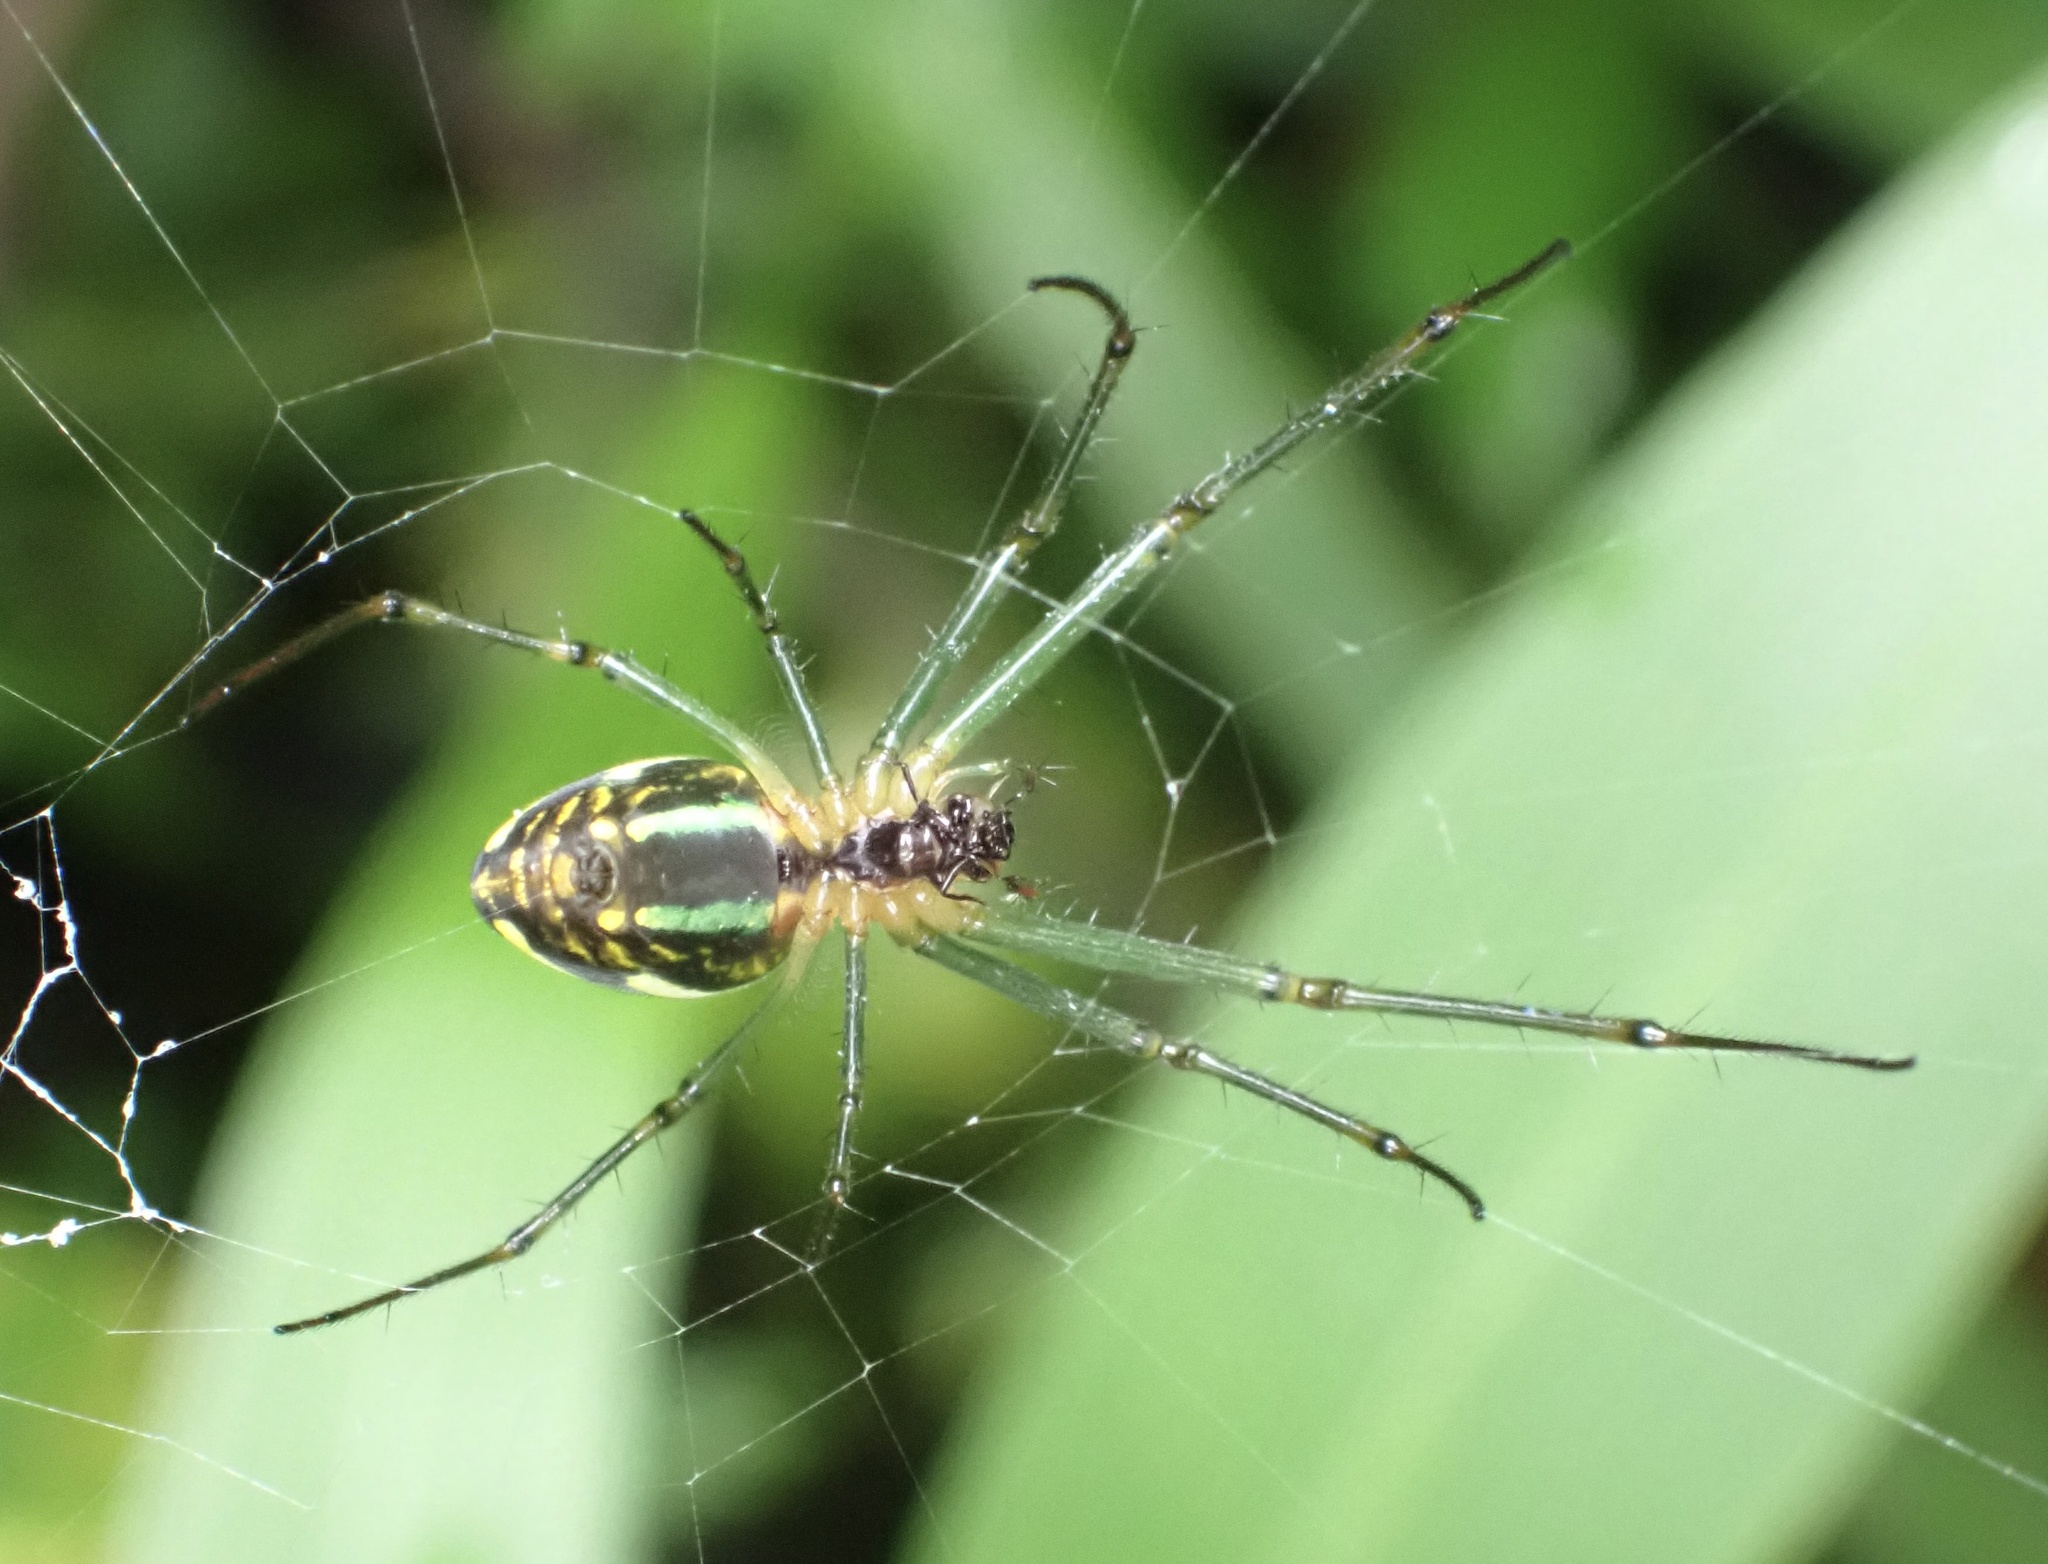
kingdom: Animalia
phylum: Arthropoda
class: Arachnida
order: Araneae
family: Tetragnathidae
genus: Leucauge
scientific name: Leucauge celebesiana
